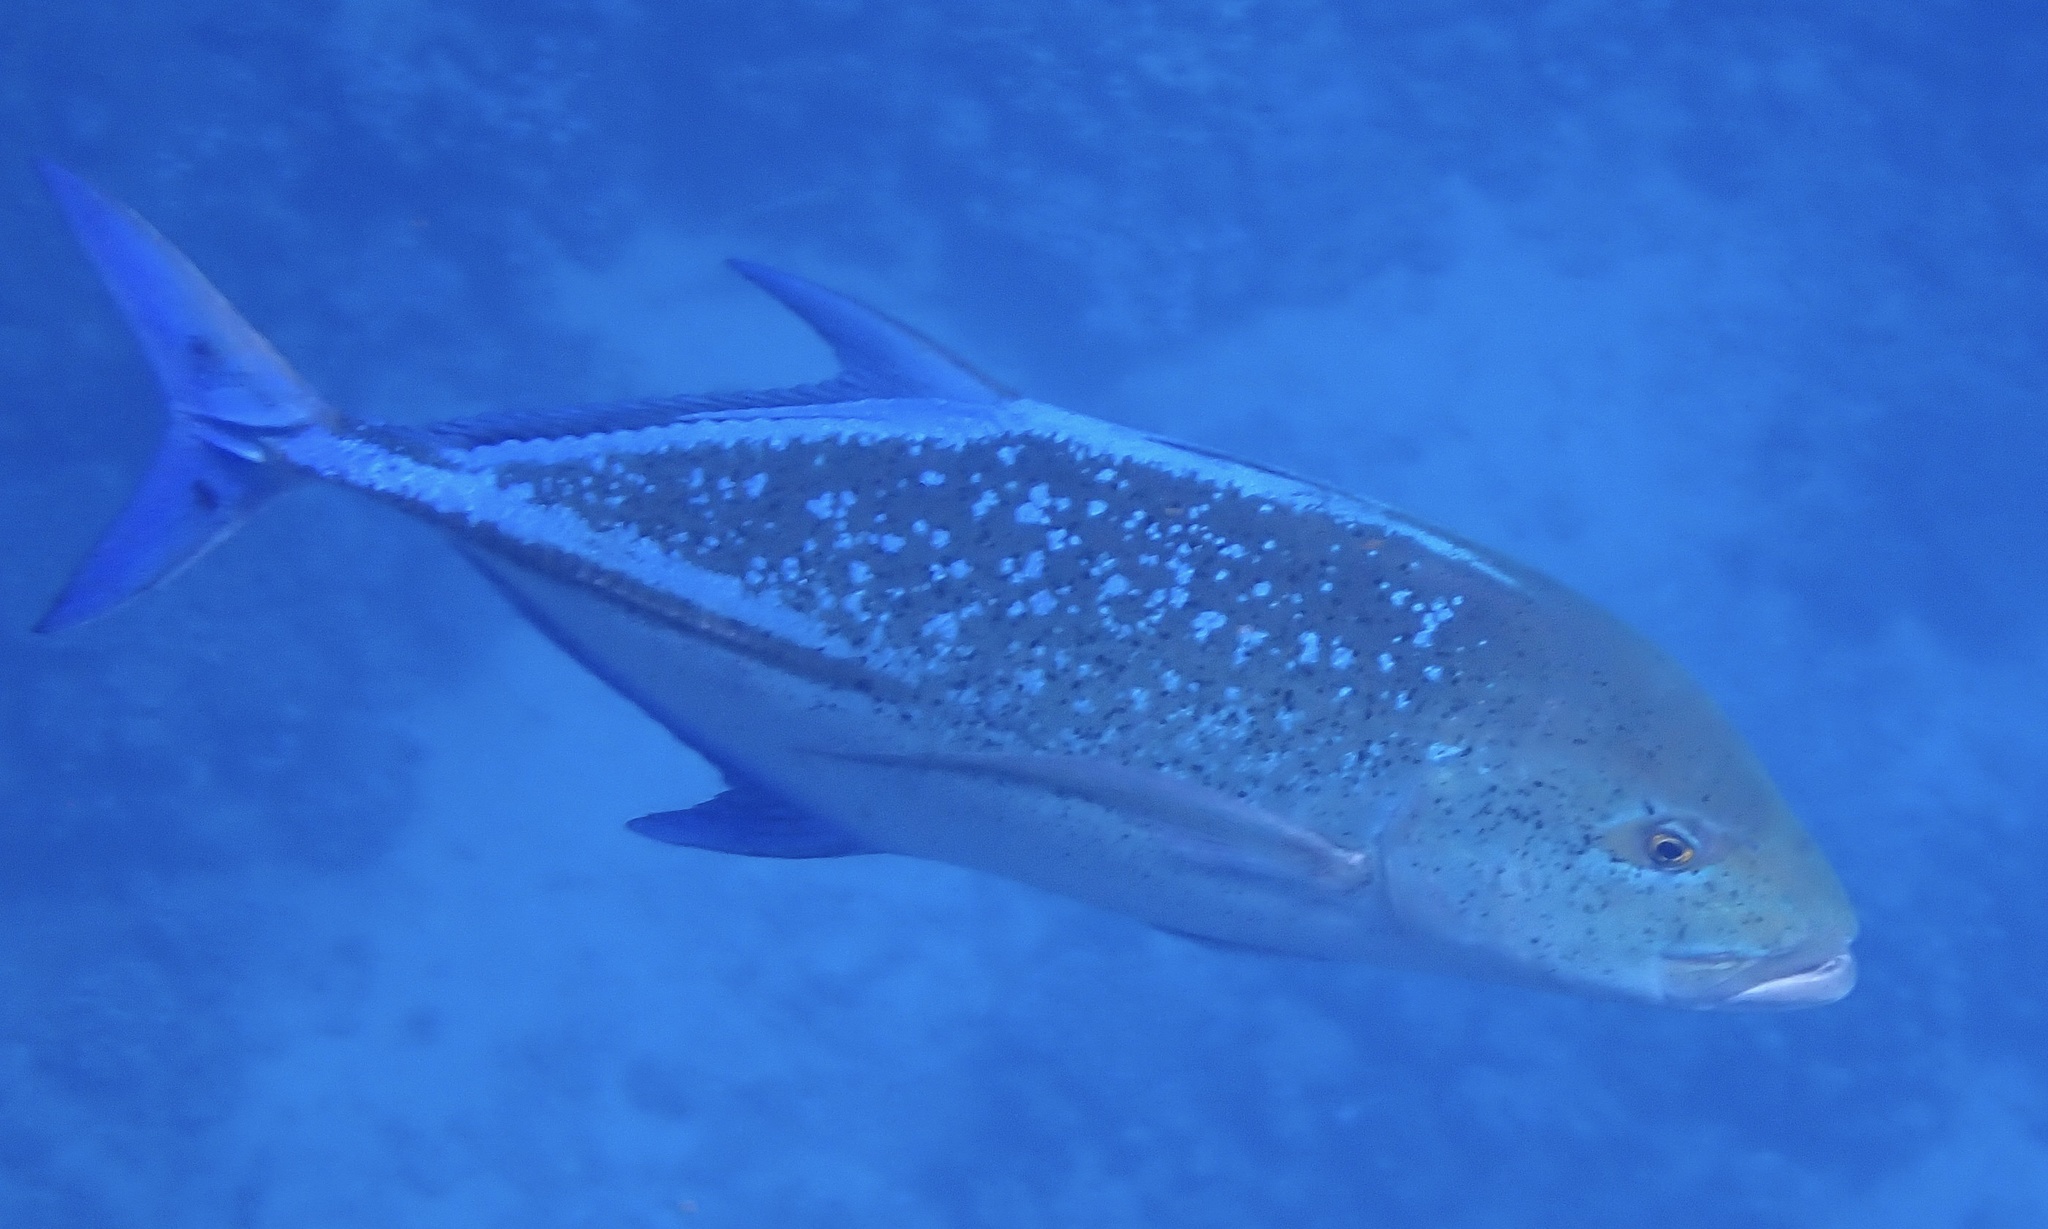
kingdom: Animalia
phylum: Chordata
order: Perciformes
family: Carangidae
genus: Caranx
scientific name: Caranx melampygus
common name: Bluefin trevally
